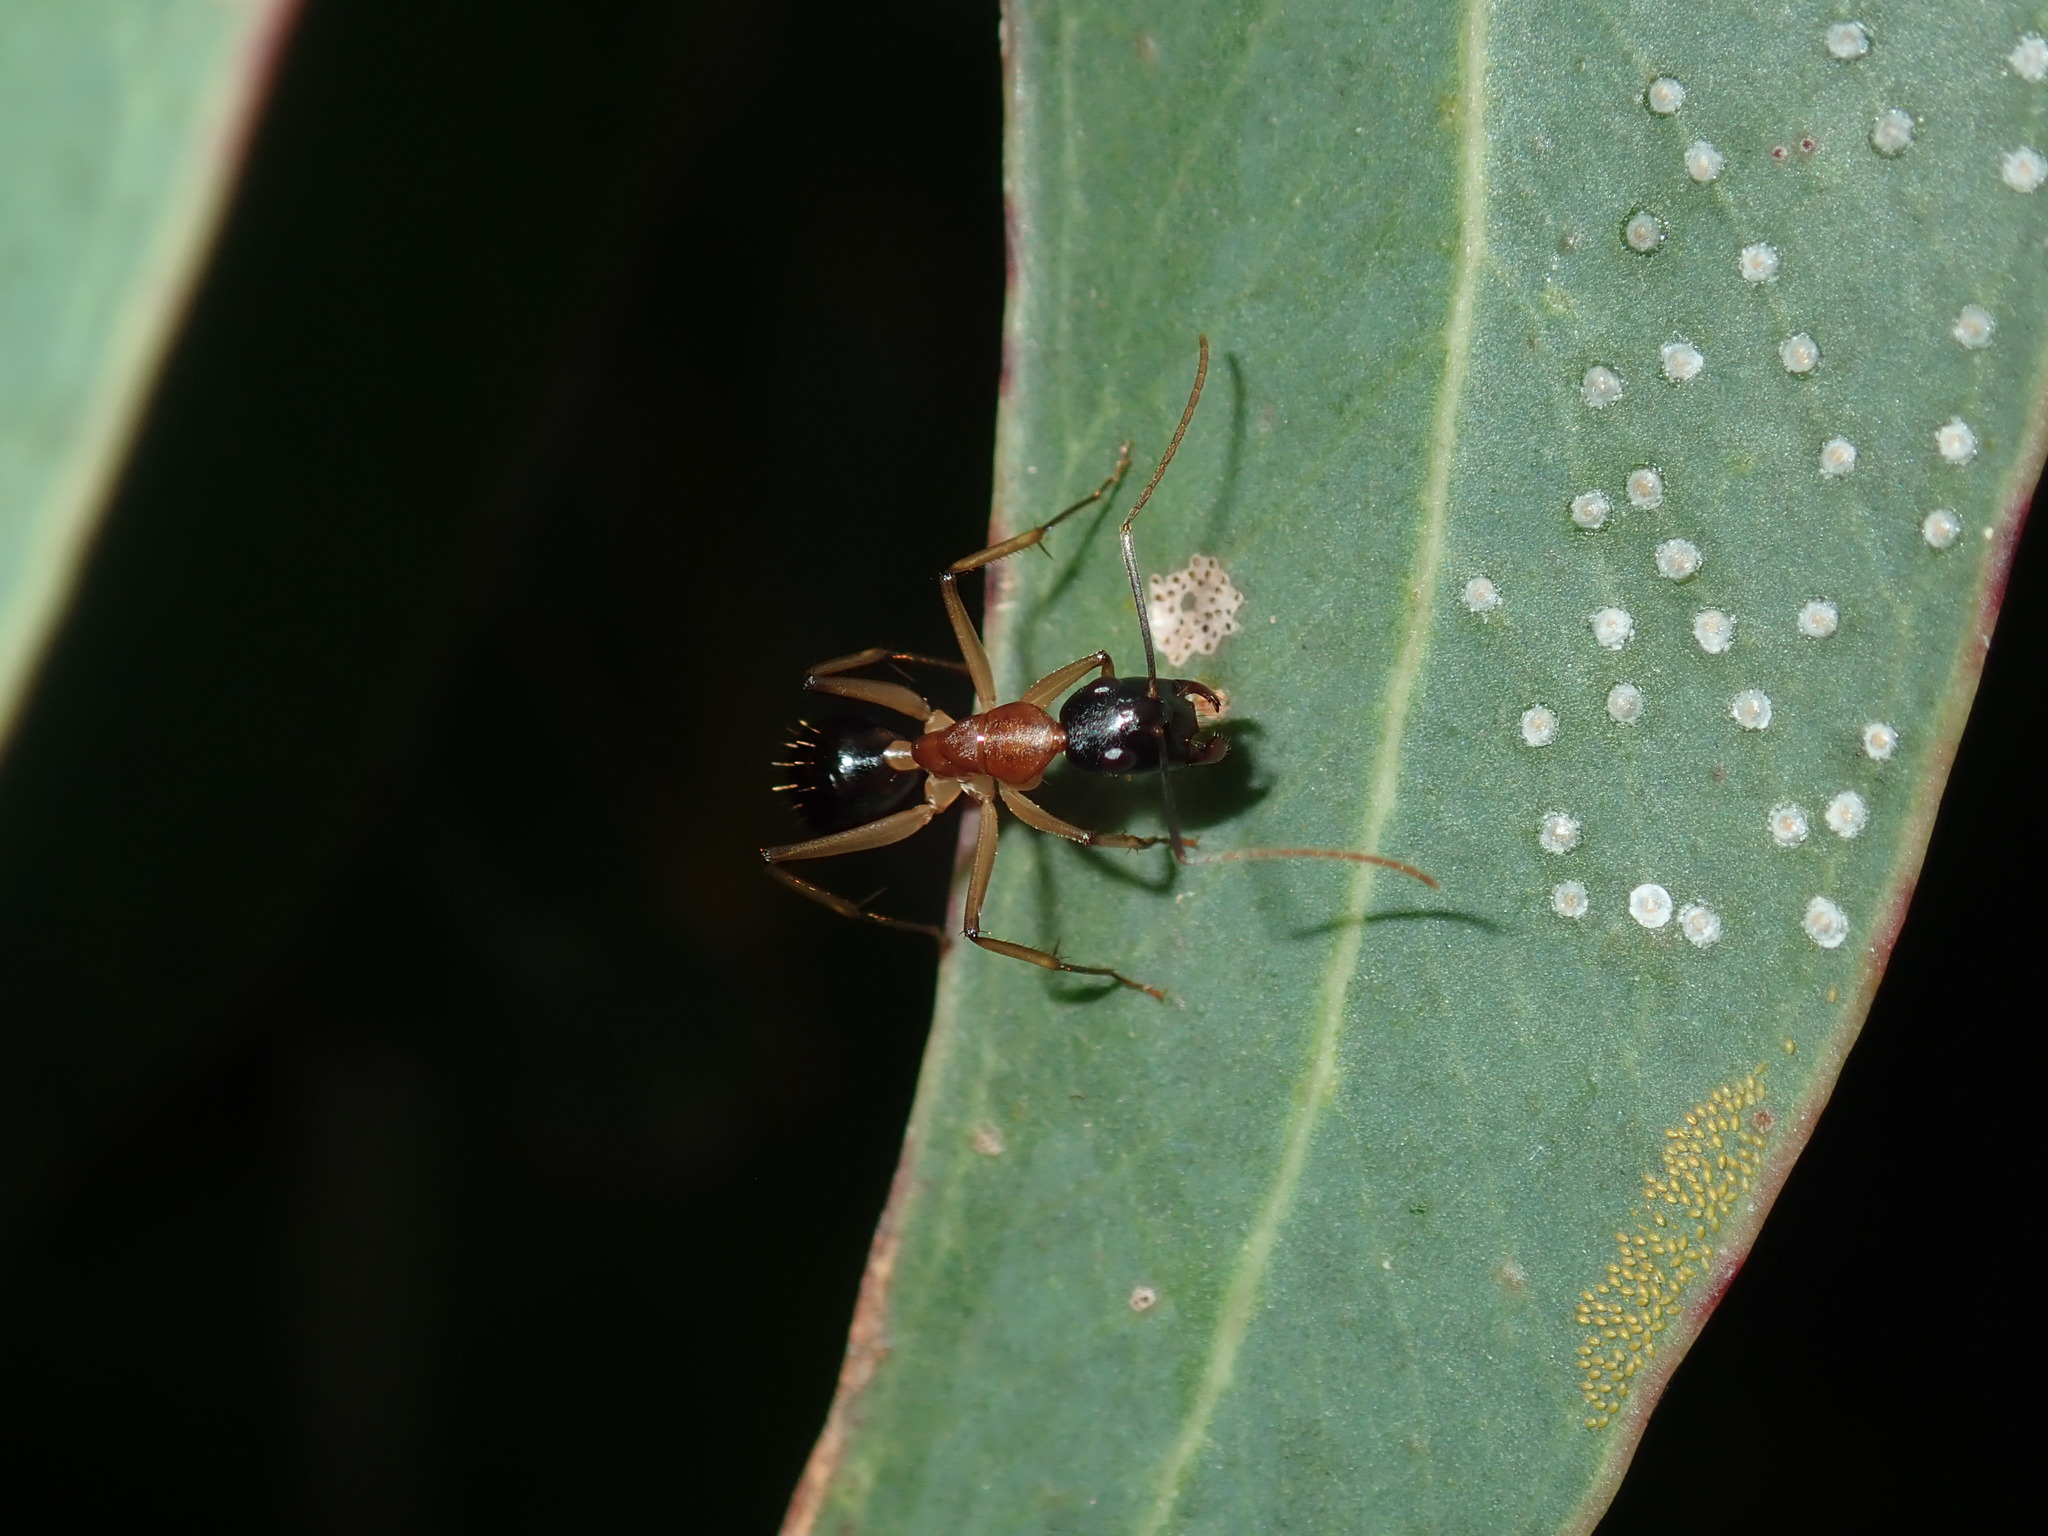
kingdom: Animalia
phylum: Arthropoda
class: Insecta
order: Hymenoptera
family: Formicidae
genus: Camponotus
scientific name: Camponotus nigriceps
